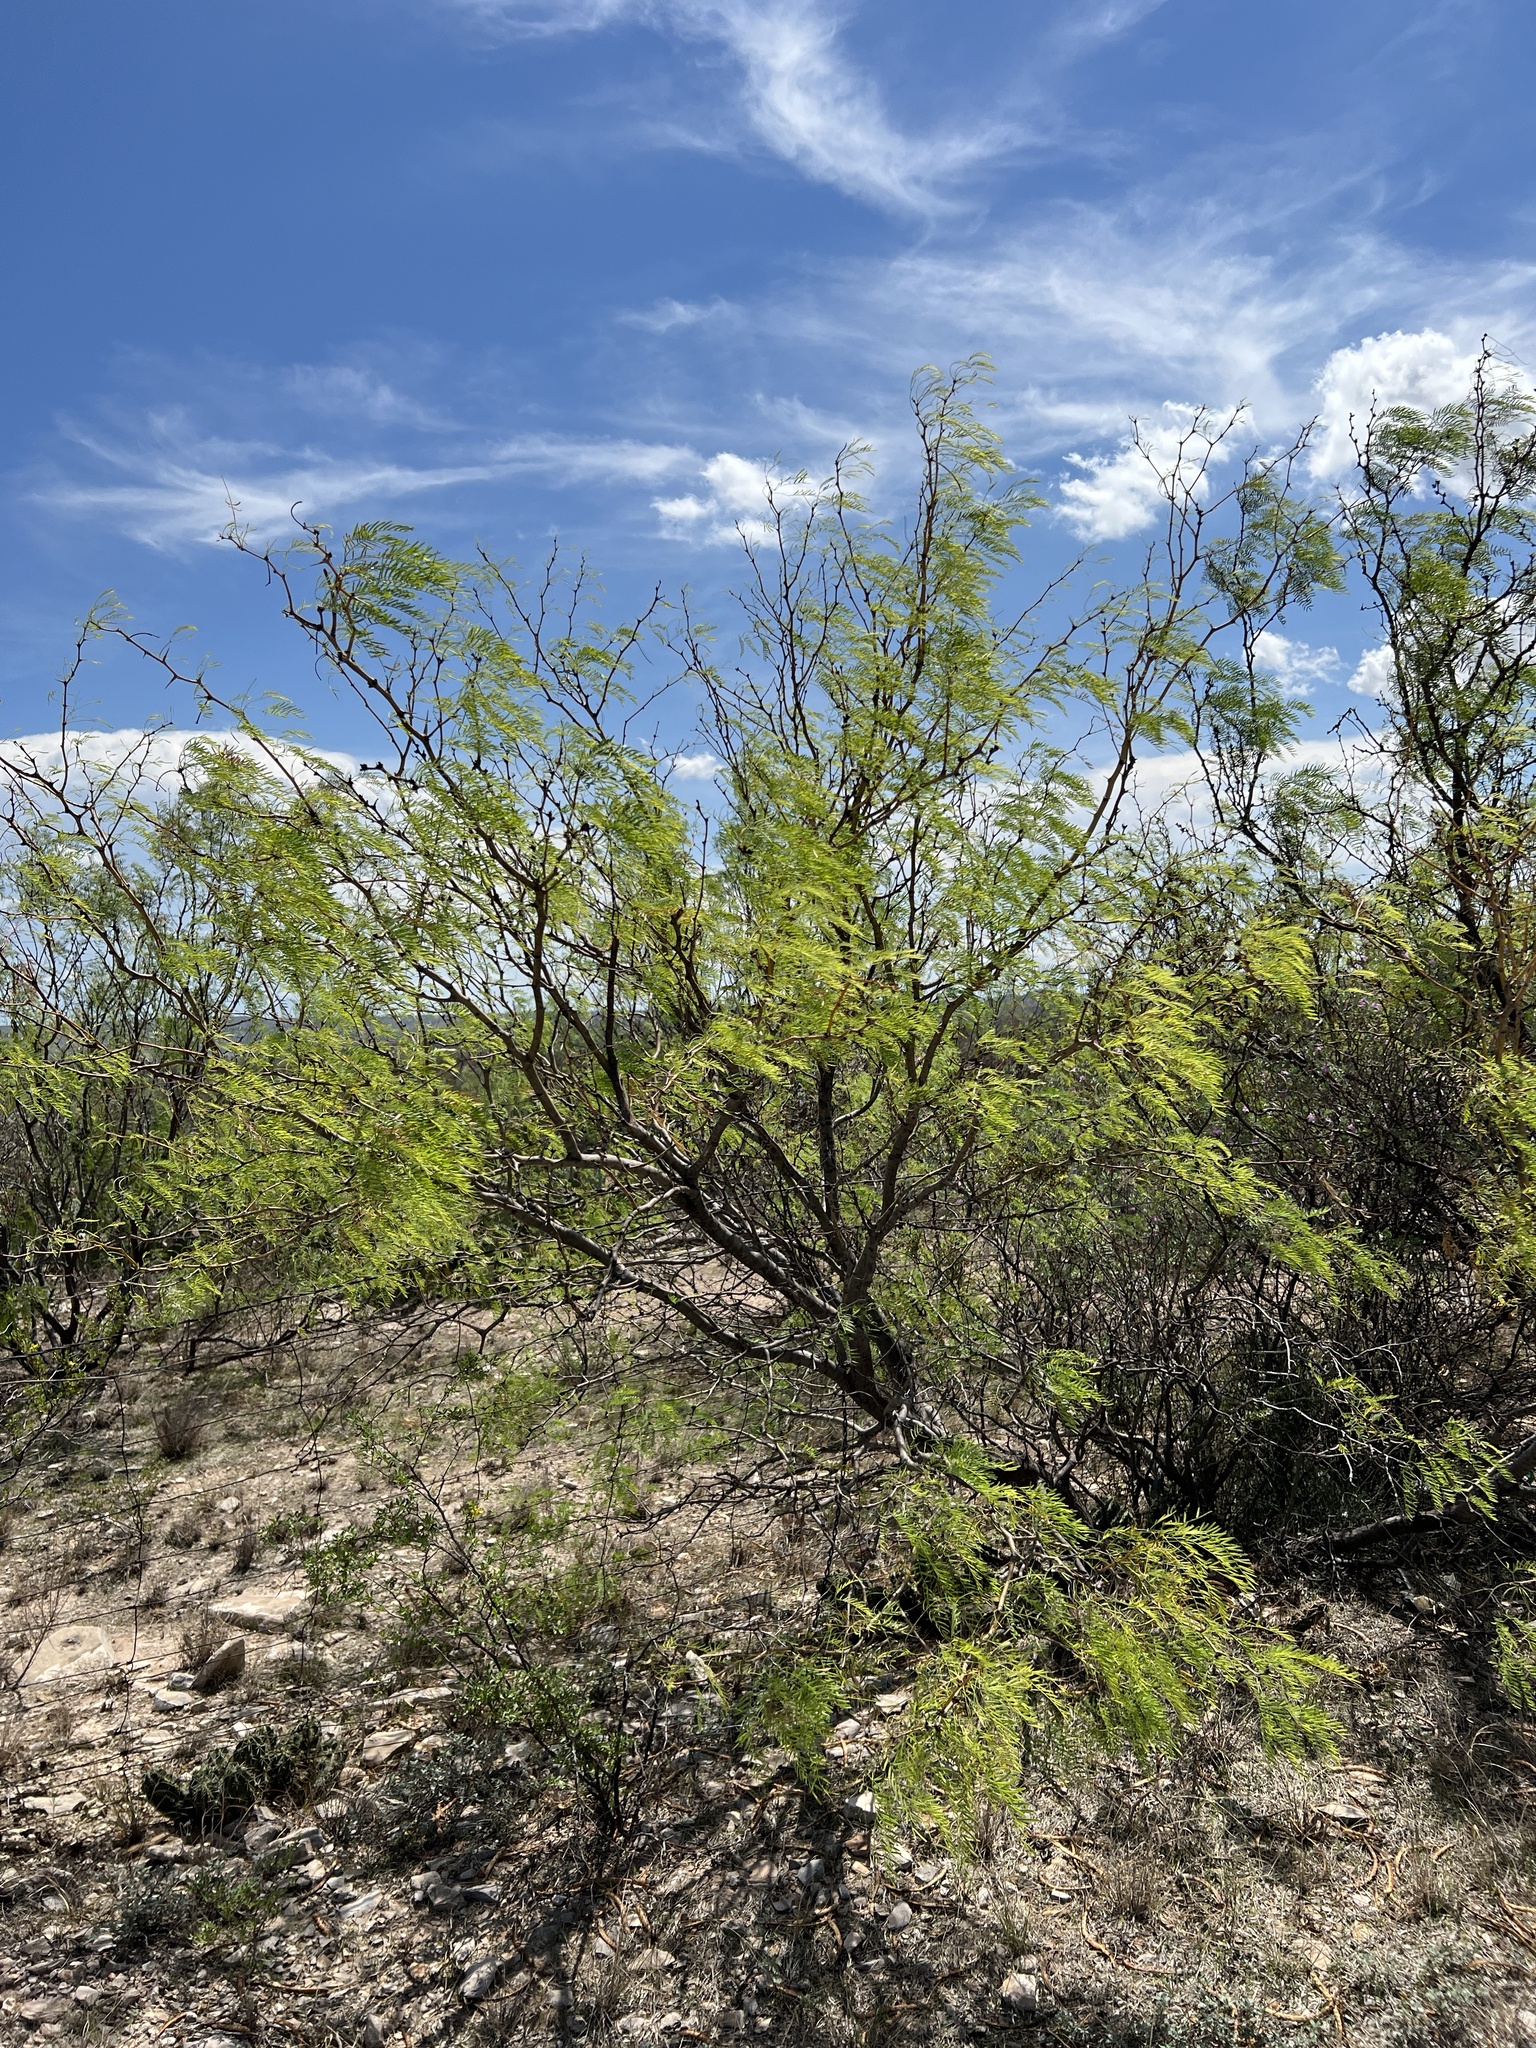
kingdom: Plantae
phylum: Tracheophyta
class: Magnoliopsida
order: Fabales
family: Fabaceae
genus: Prosopis
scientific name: Prosopis glandulosa
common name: Honey mesquite
